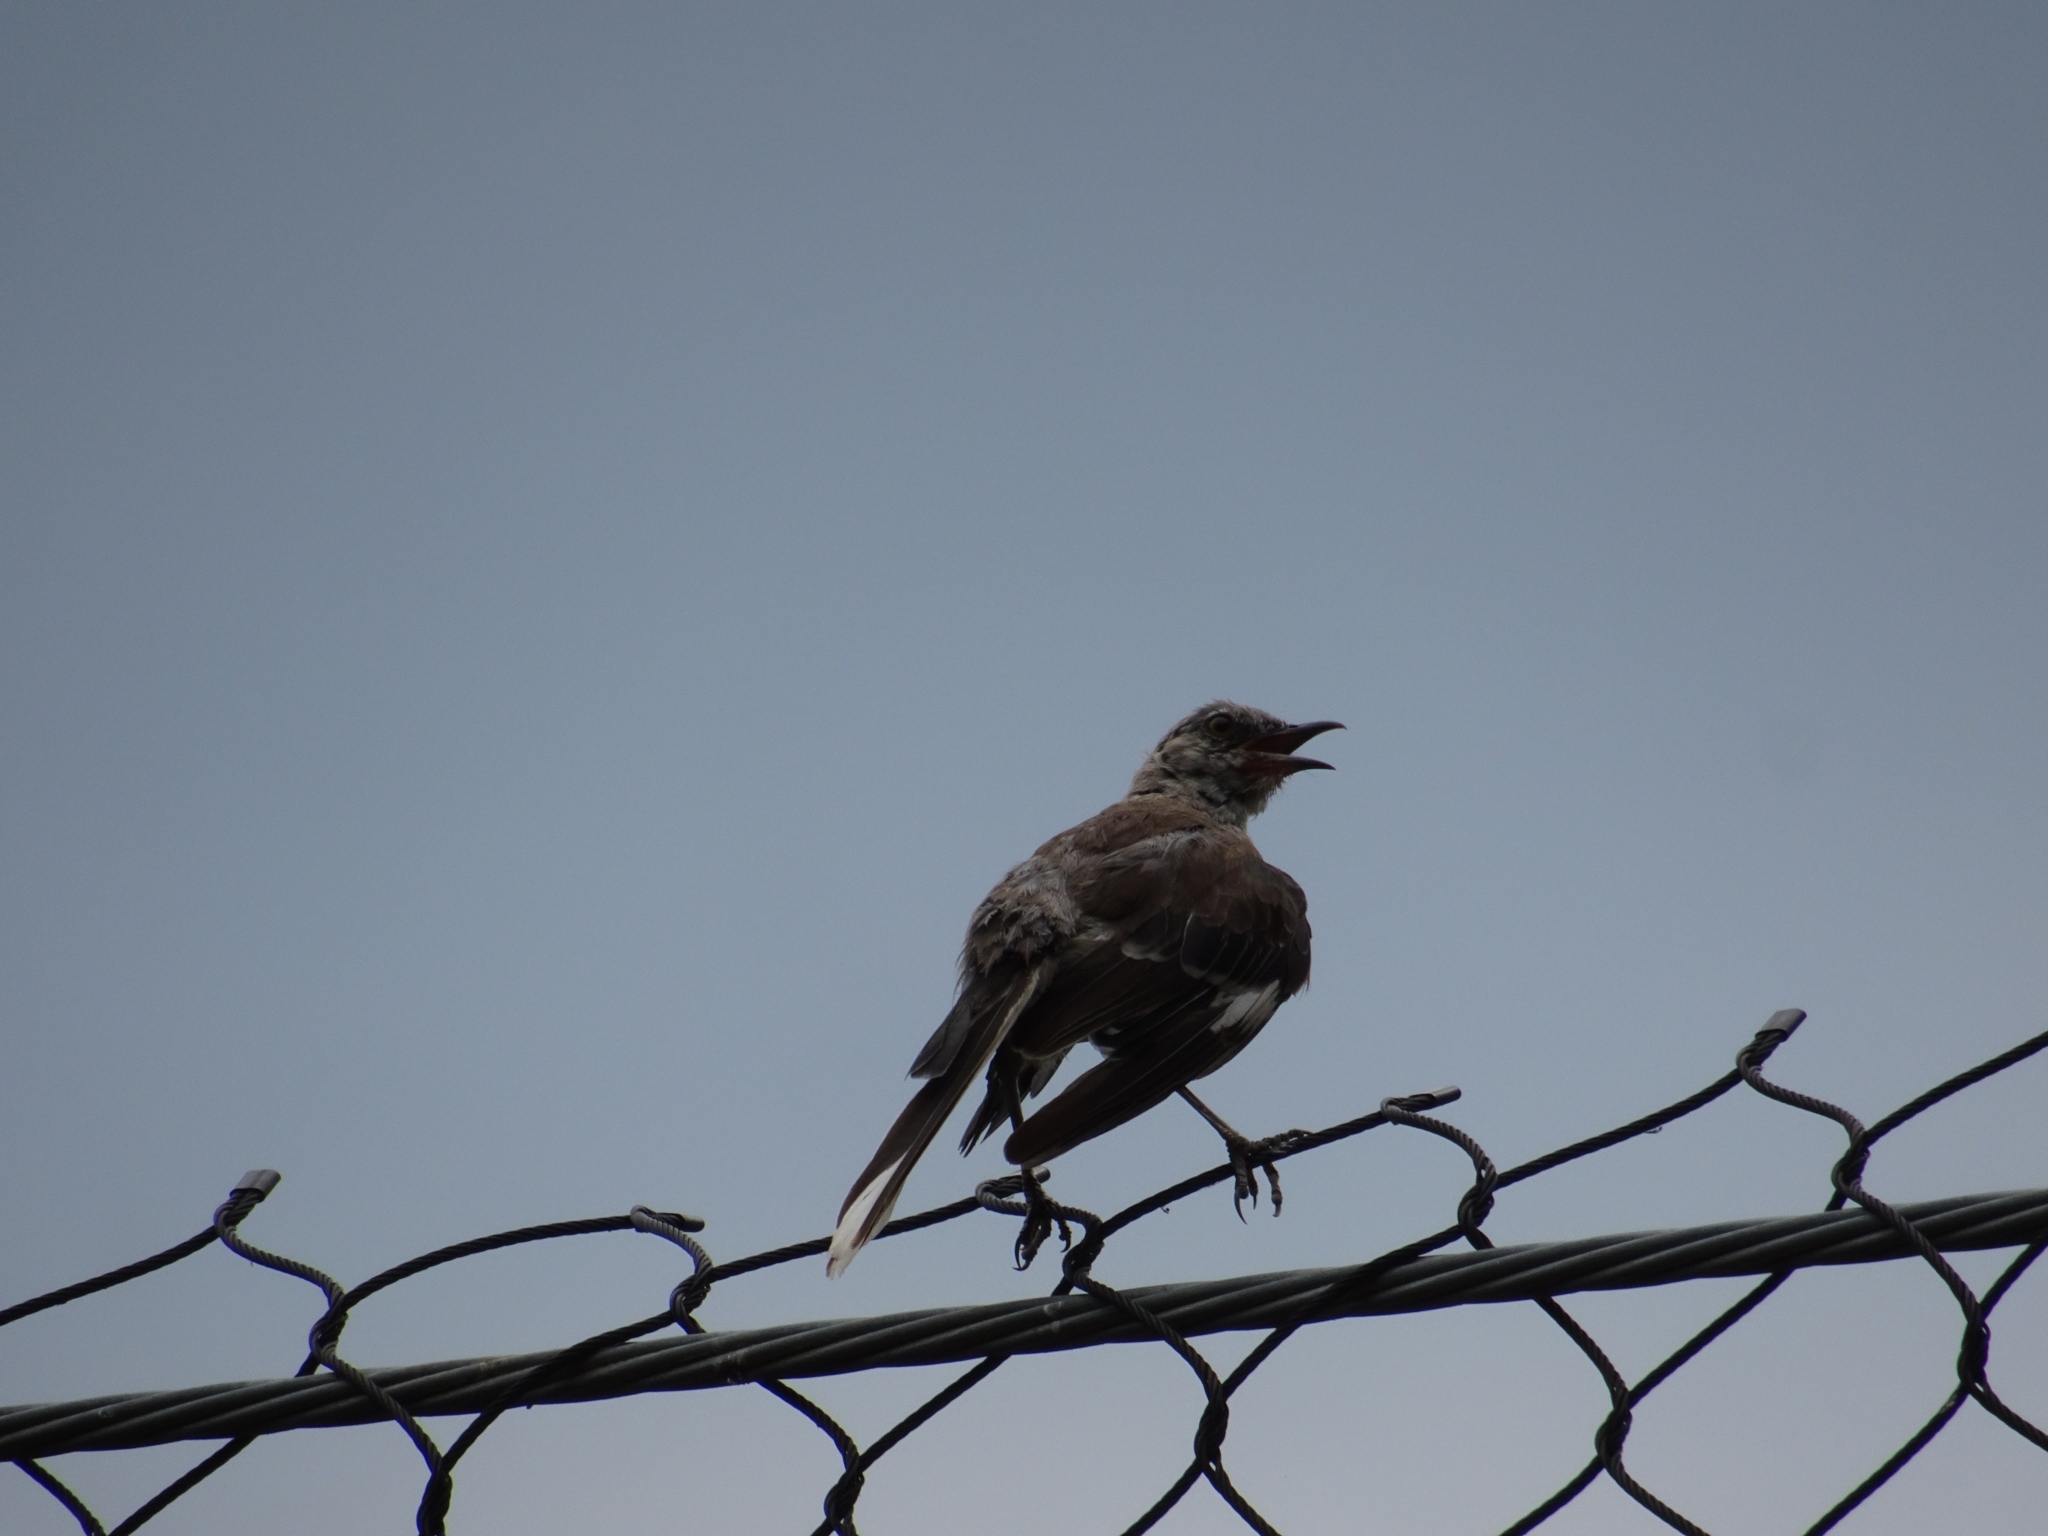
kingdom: Animalia
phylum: Chordata
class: Aves
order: Passeriformes
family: Mimidae
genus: Mimus
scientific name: Mimus polyglottos
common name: Northern mockingbird
